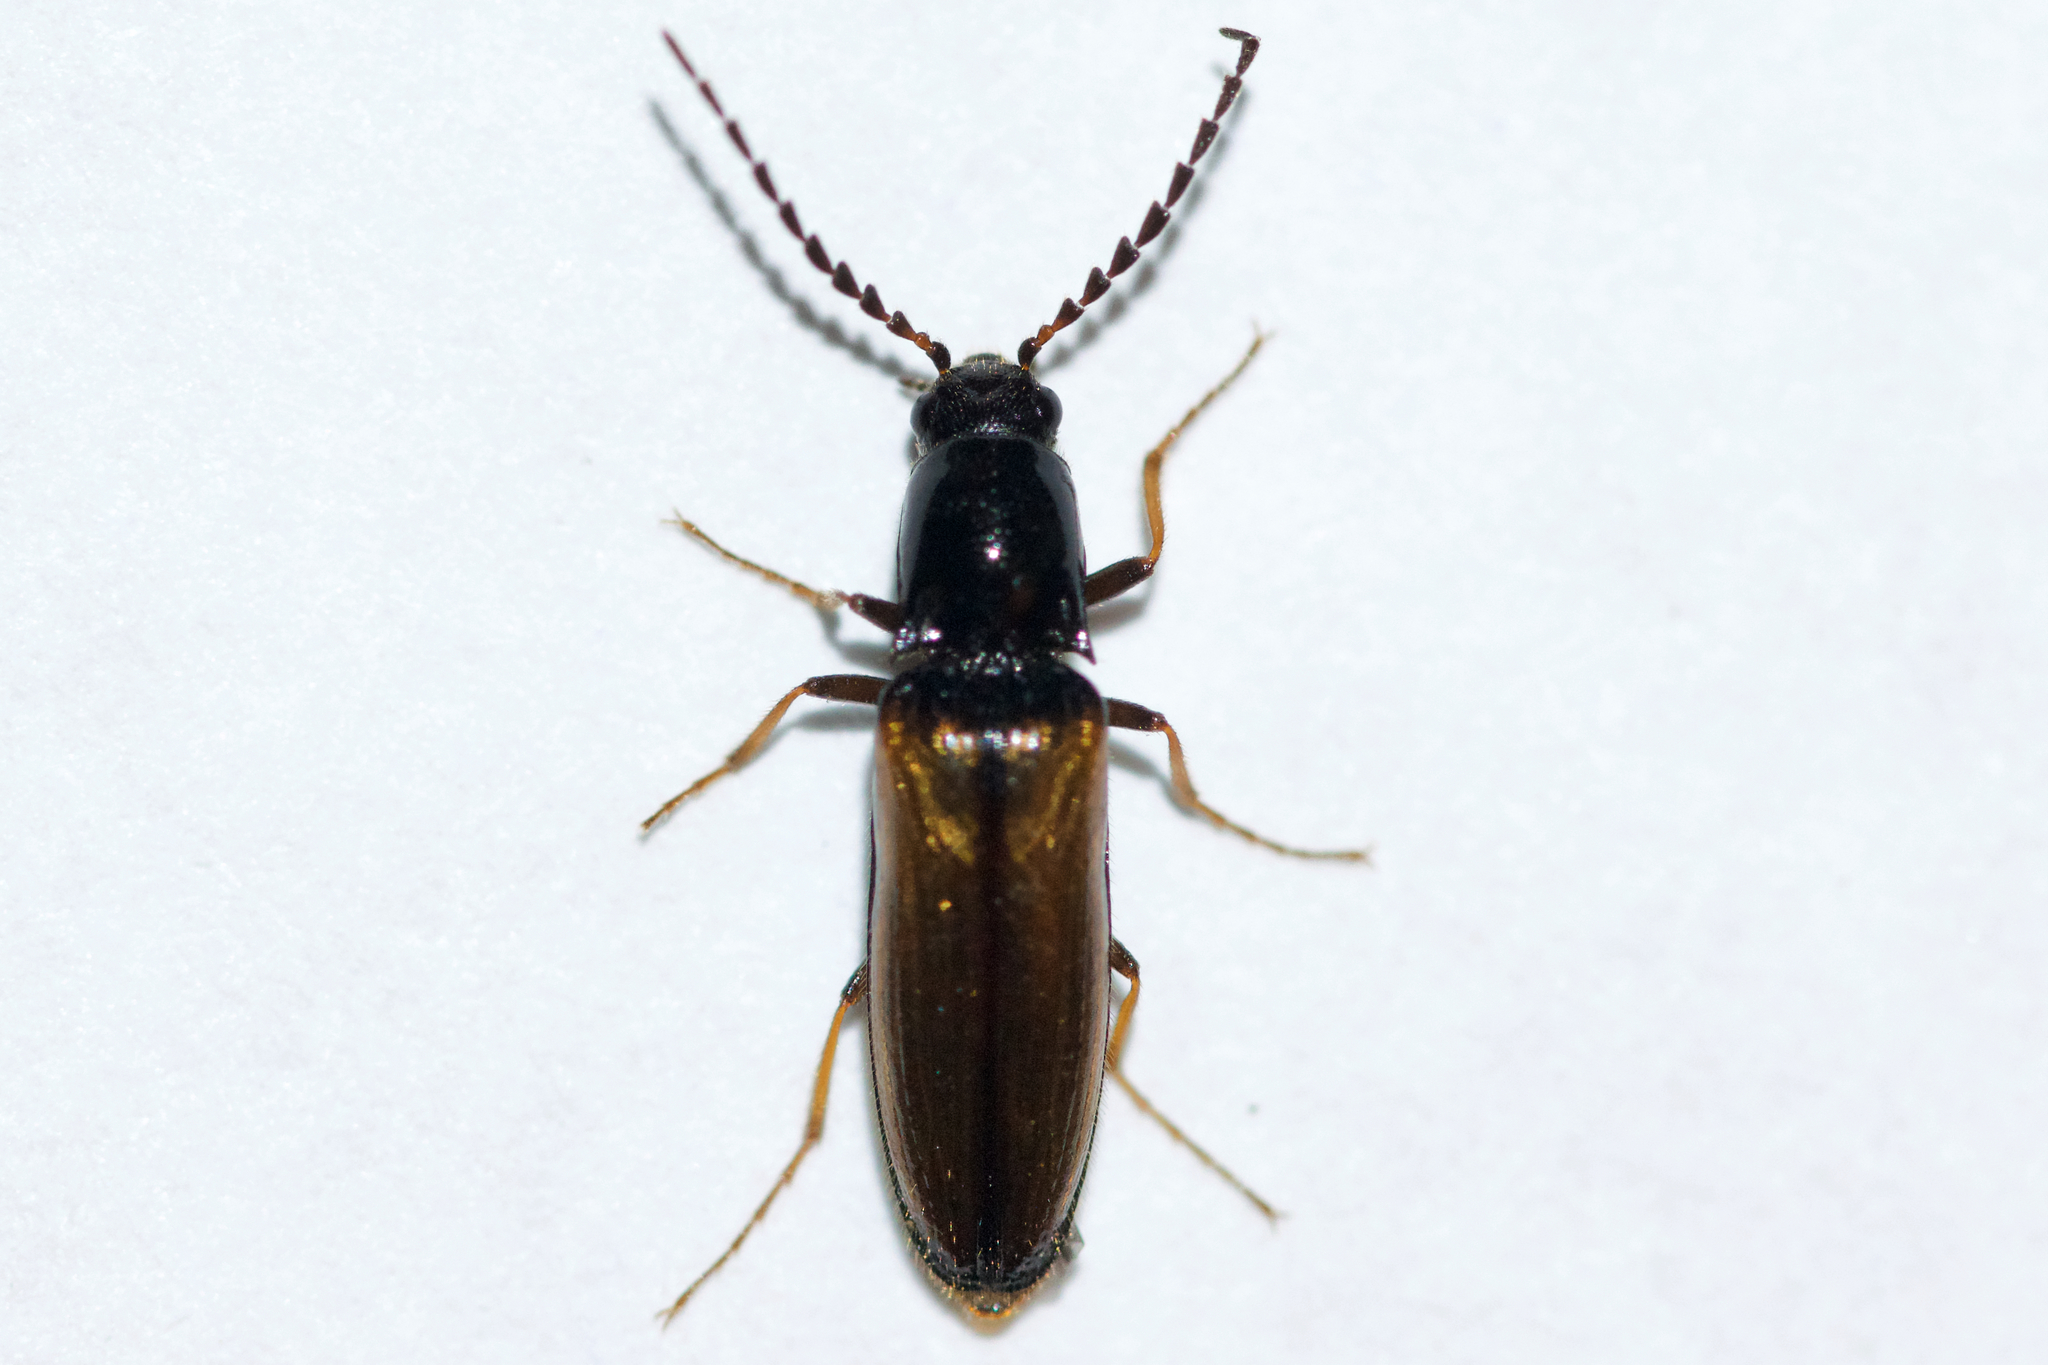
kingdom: Animalia
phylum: Arthropoda
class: Insecta
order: Coleoptera
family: Elateridae
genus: Oestodes
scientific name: Oestodes tenuicollis
